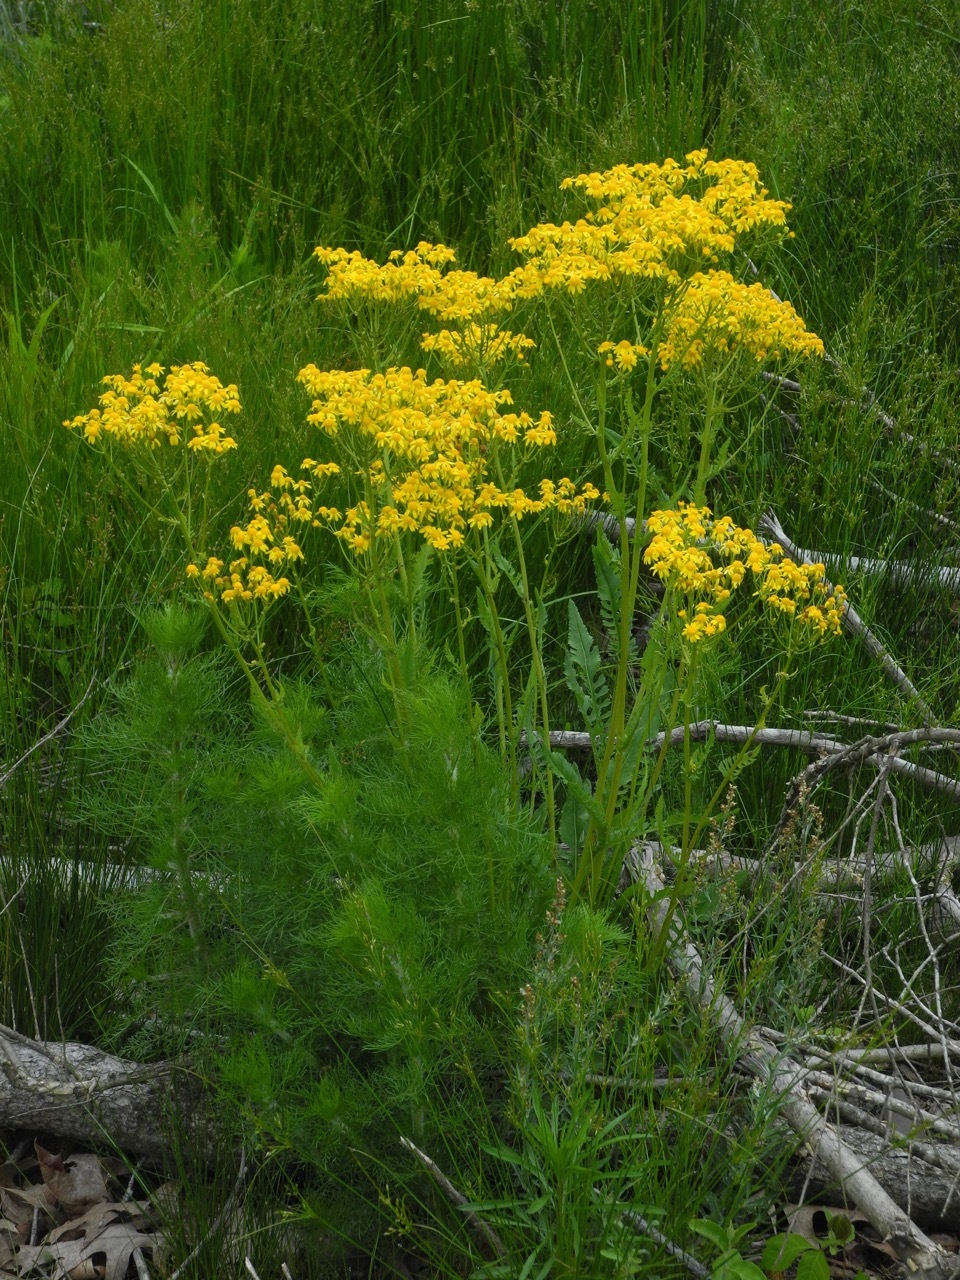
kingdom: Plantae
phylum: Tracheophyta
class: Magnoliopsida
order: Asterales
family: Asteraceae
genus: Packera
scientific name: Packera anonyma
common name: Small ragwort
